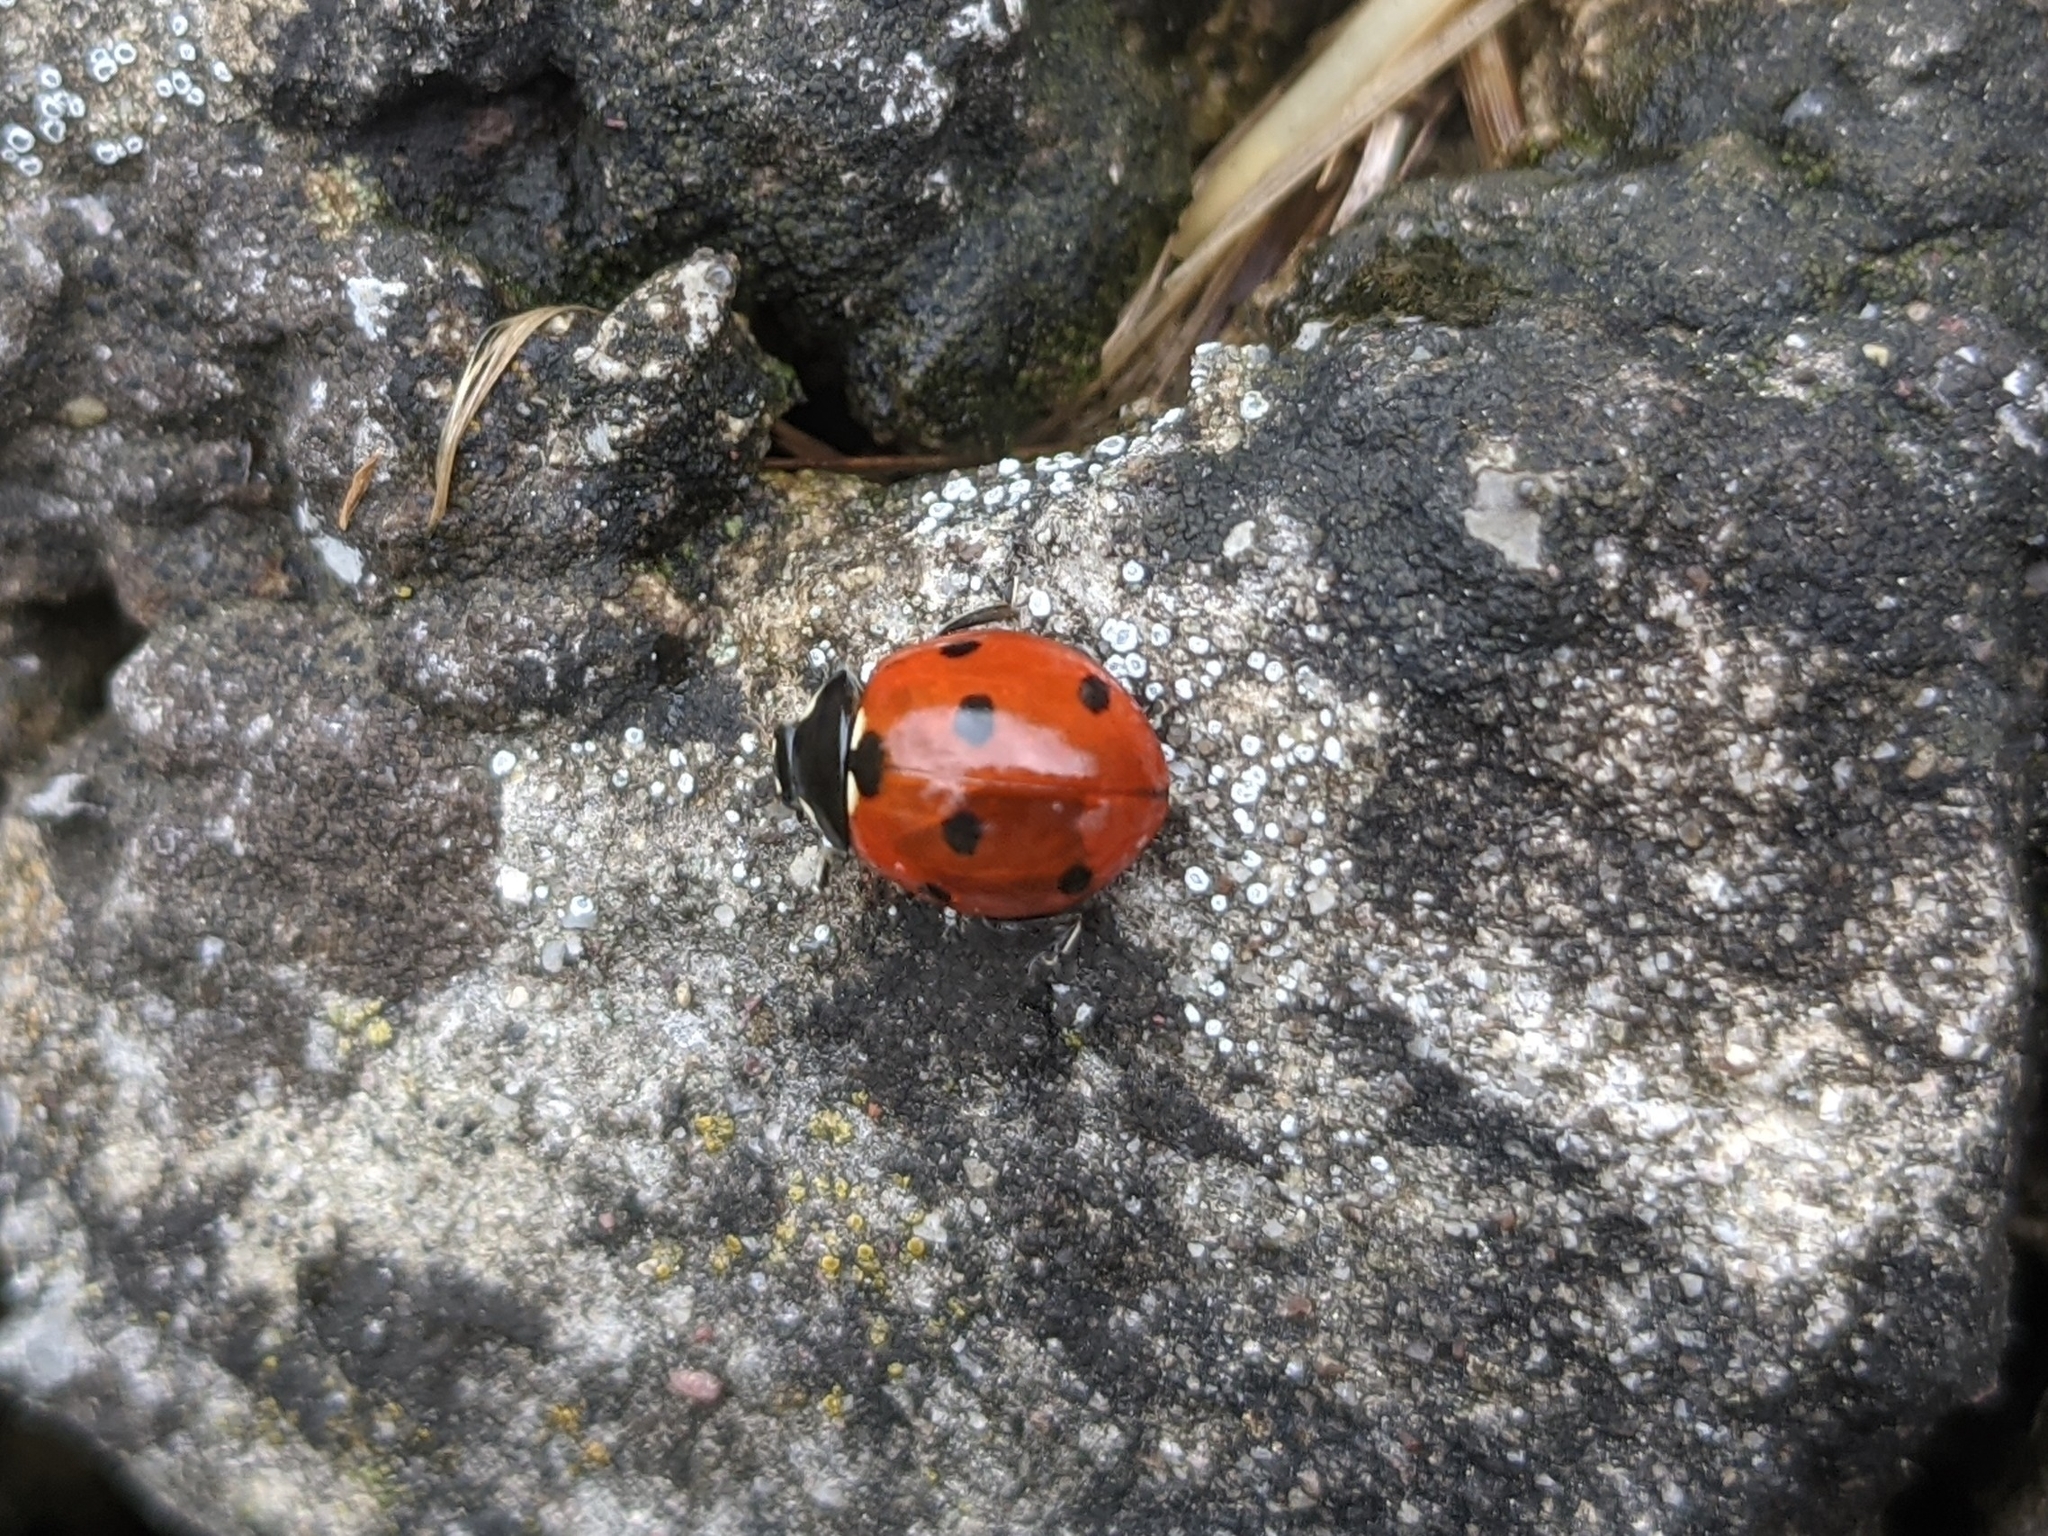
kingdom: Animalia
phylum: Arthropoda
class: Insecta
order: Coleoptera
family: Coccinellidae
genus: Coccinella
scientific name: Coccinella septempunctata
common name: Sevenspotted lady beetle
